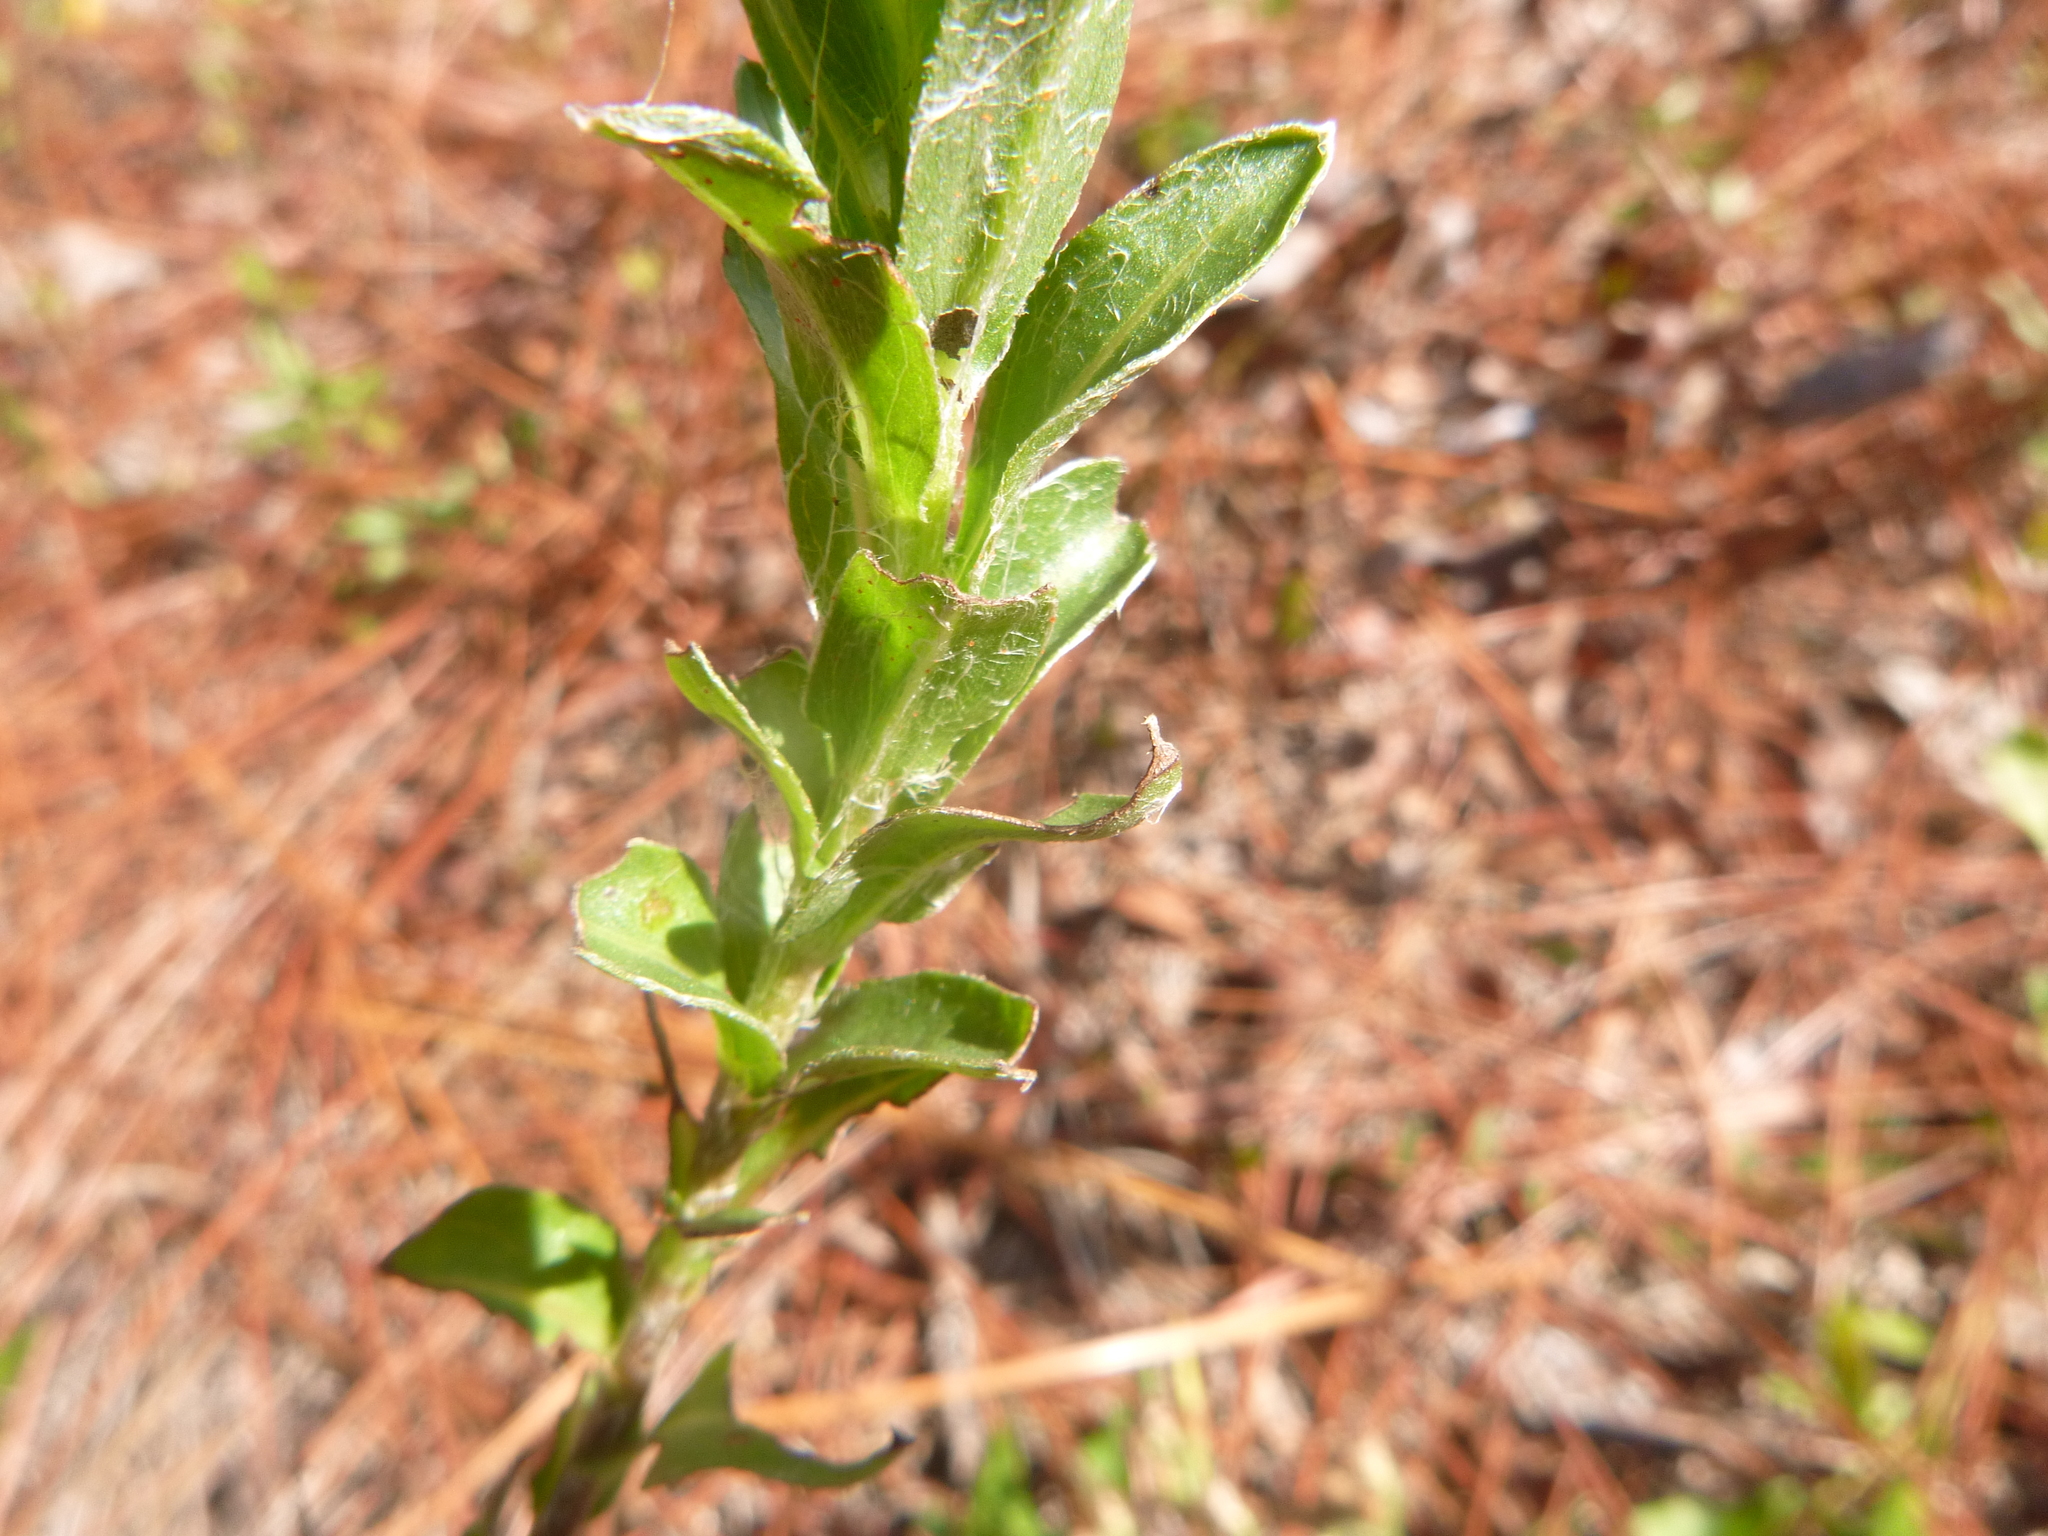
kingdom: Plantae
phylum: Tracheophyta
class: Magnoliopsida
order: Asterales
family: Asteraceae
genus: Chrysopsis
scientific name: Chrysopsis mariana
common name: Maryland golden-aster
